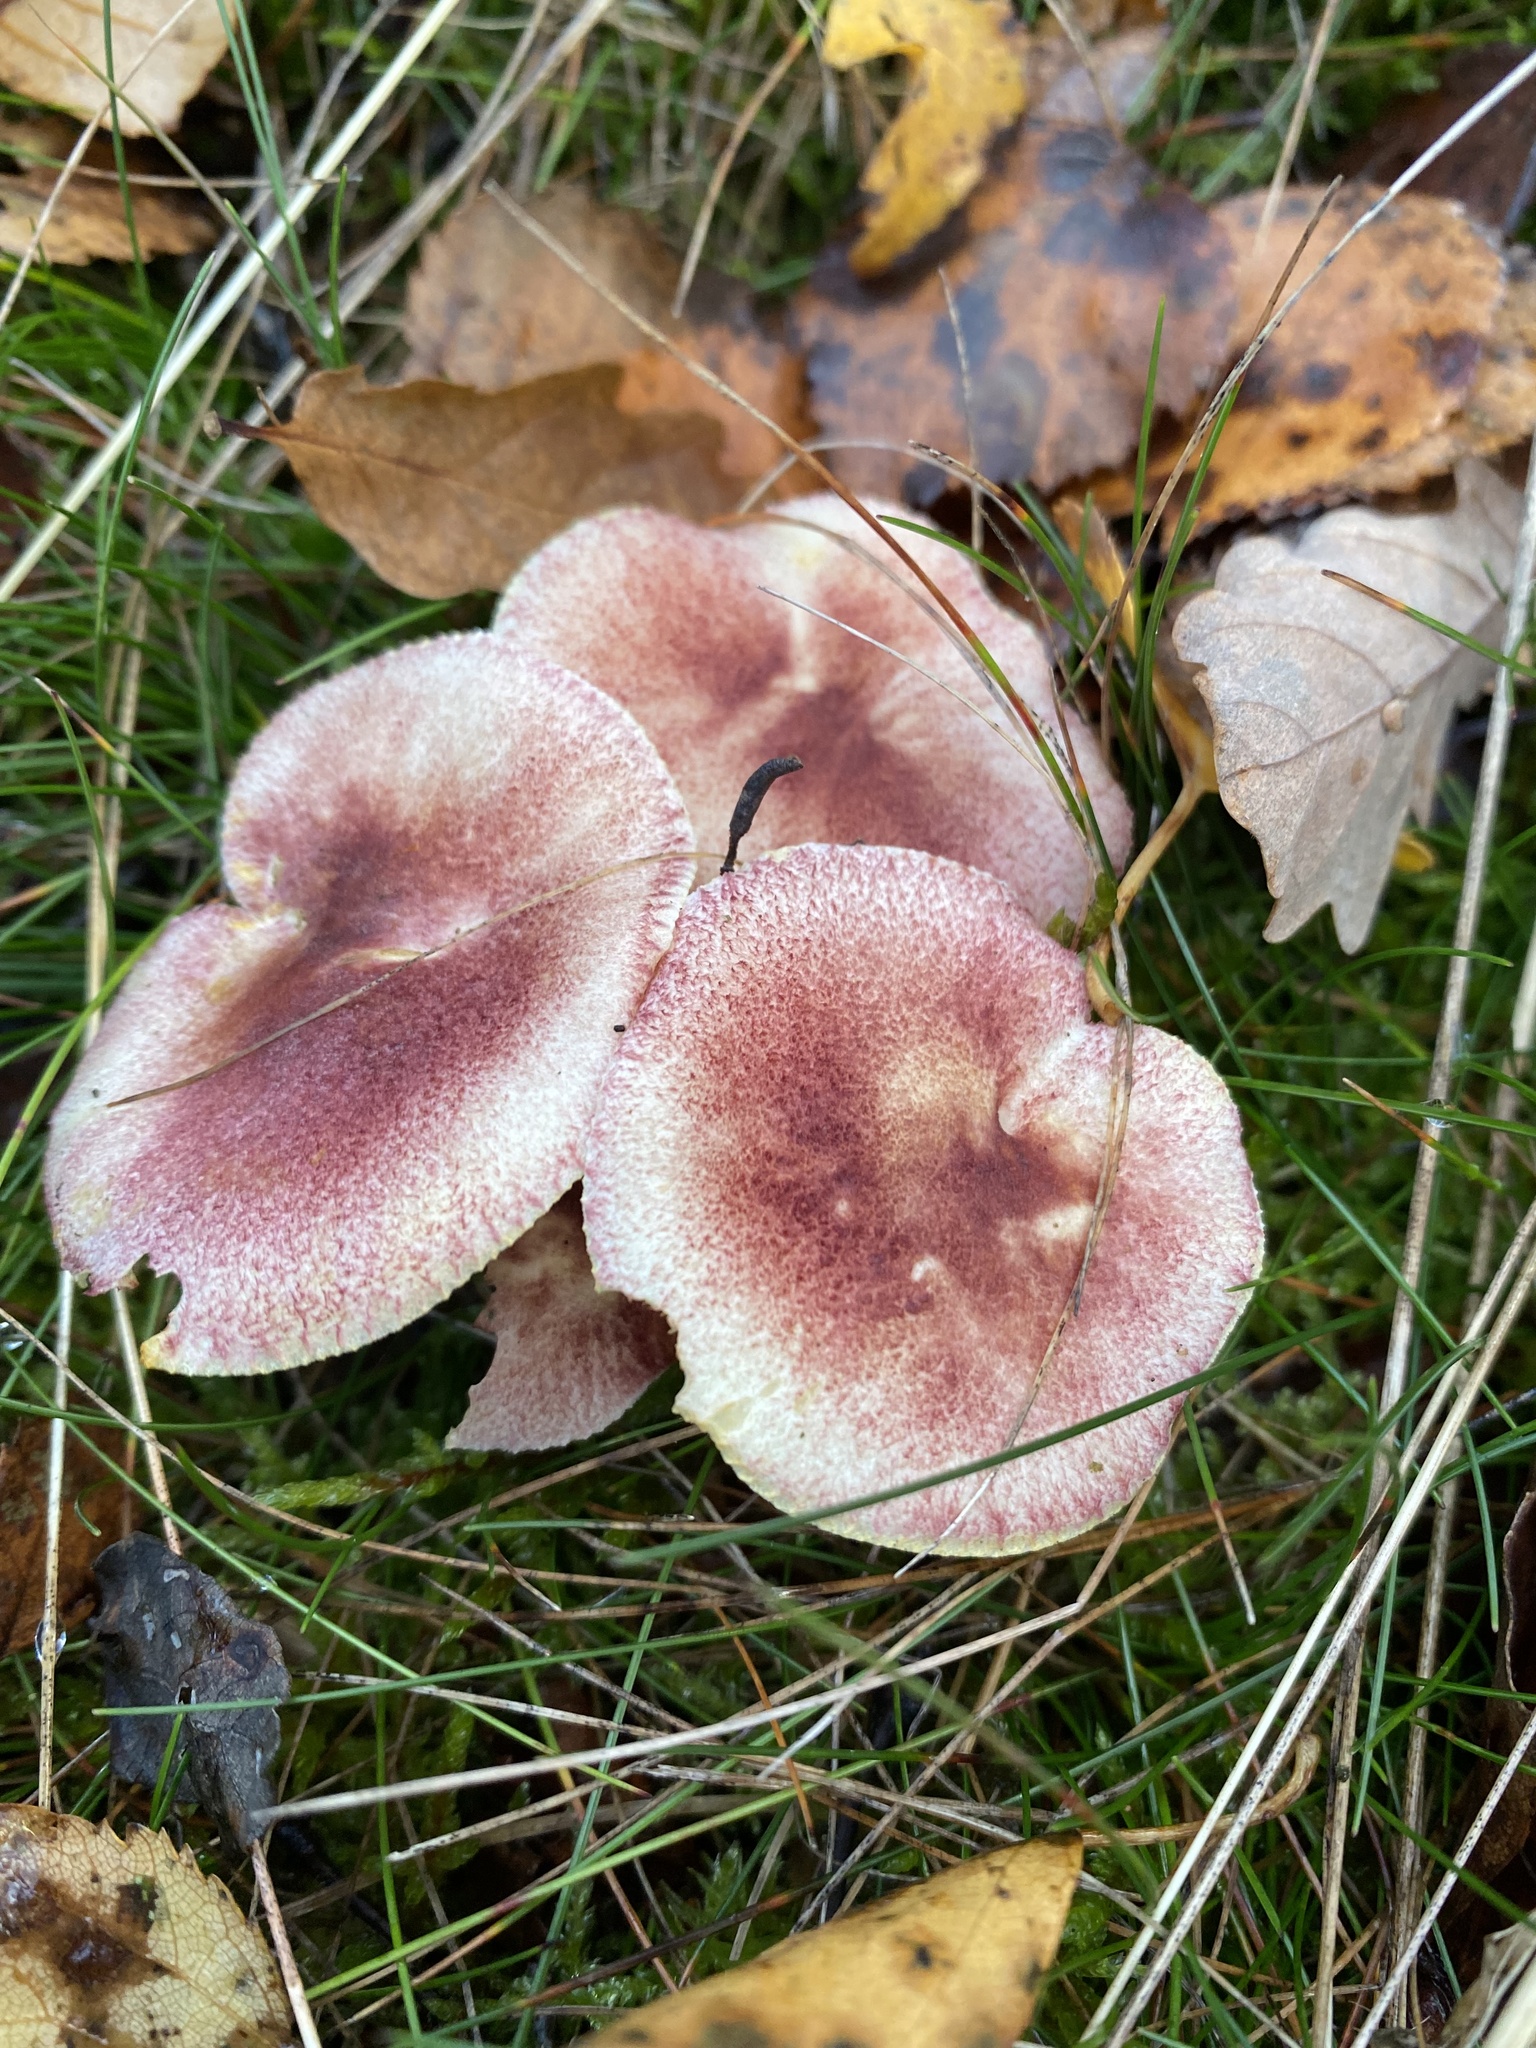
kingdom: Fungi
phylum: Basidiomycota
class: Agaricomycetes
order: Agaricales
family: Tricholomataceae
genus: Tricholomopsis
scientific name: Tricholomopsis rutilans
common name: Plums and custard
